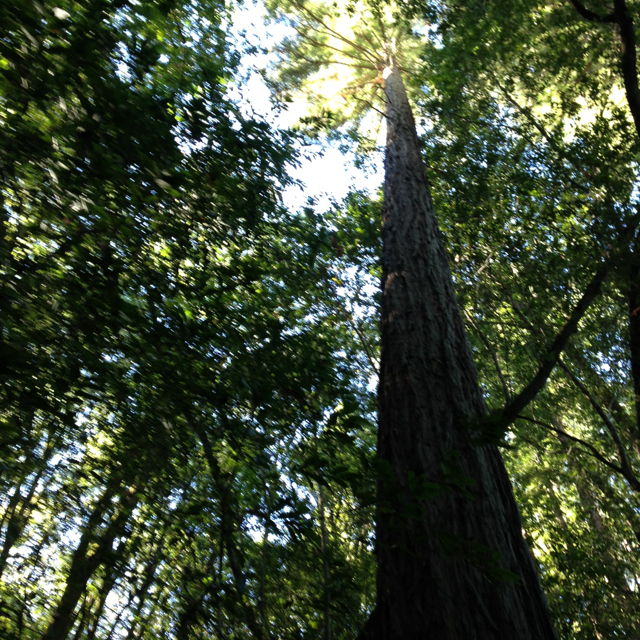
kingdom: Plantae
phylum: Tracheophyta
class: Pinopsida
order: Pinales
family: Cupressaceae
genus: Sequoia
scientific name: Sequoia sempervirens
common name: Coast redwood
